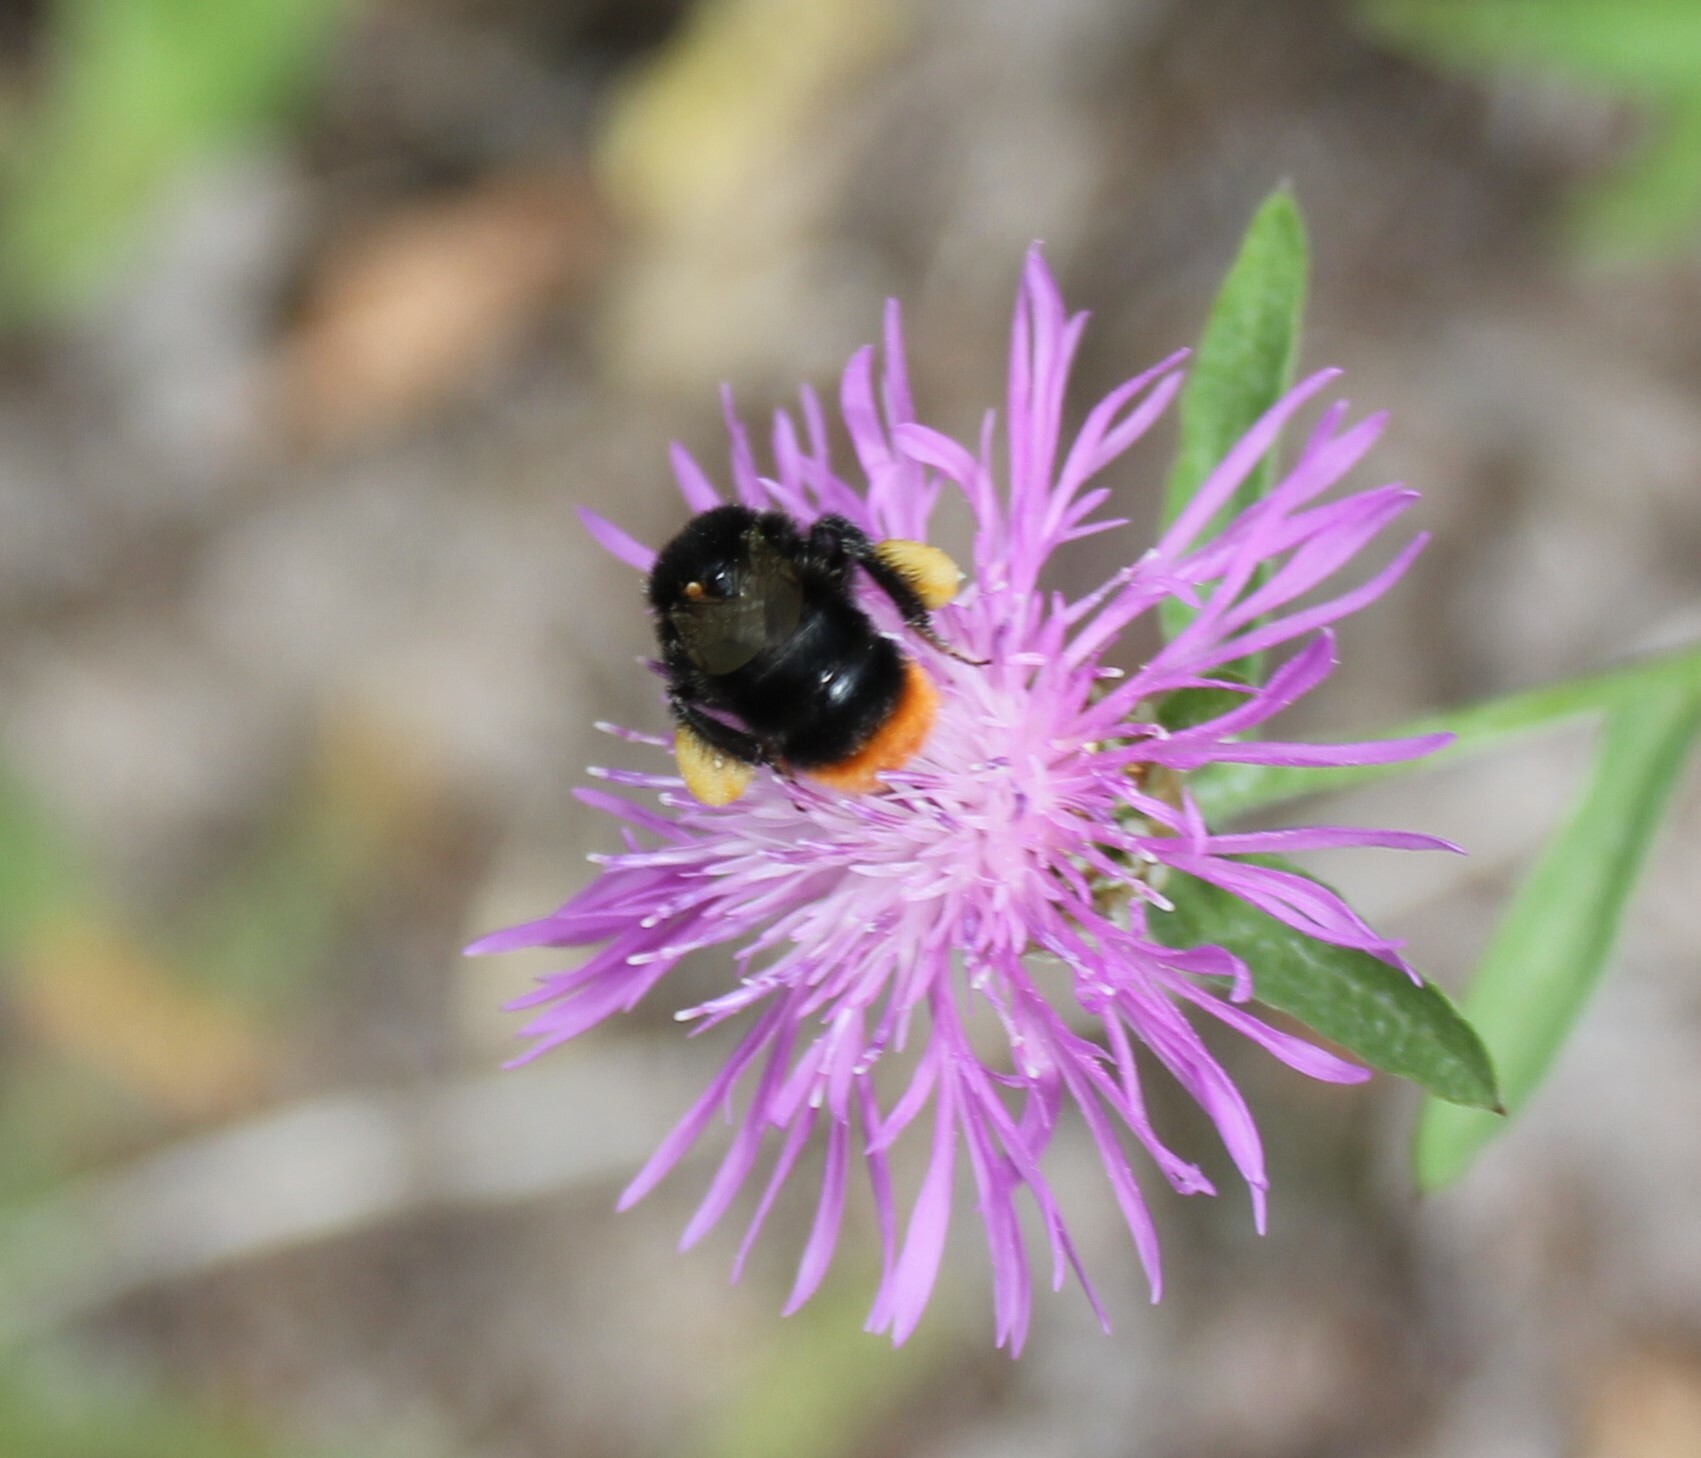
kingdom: Animalia
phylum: Arthropoda
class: Insecta
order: Hymenoptera
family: Apidae
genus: Bombus
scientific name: Bombus
